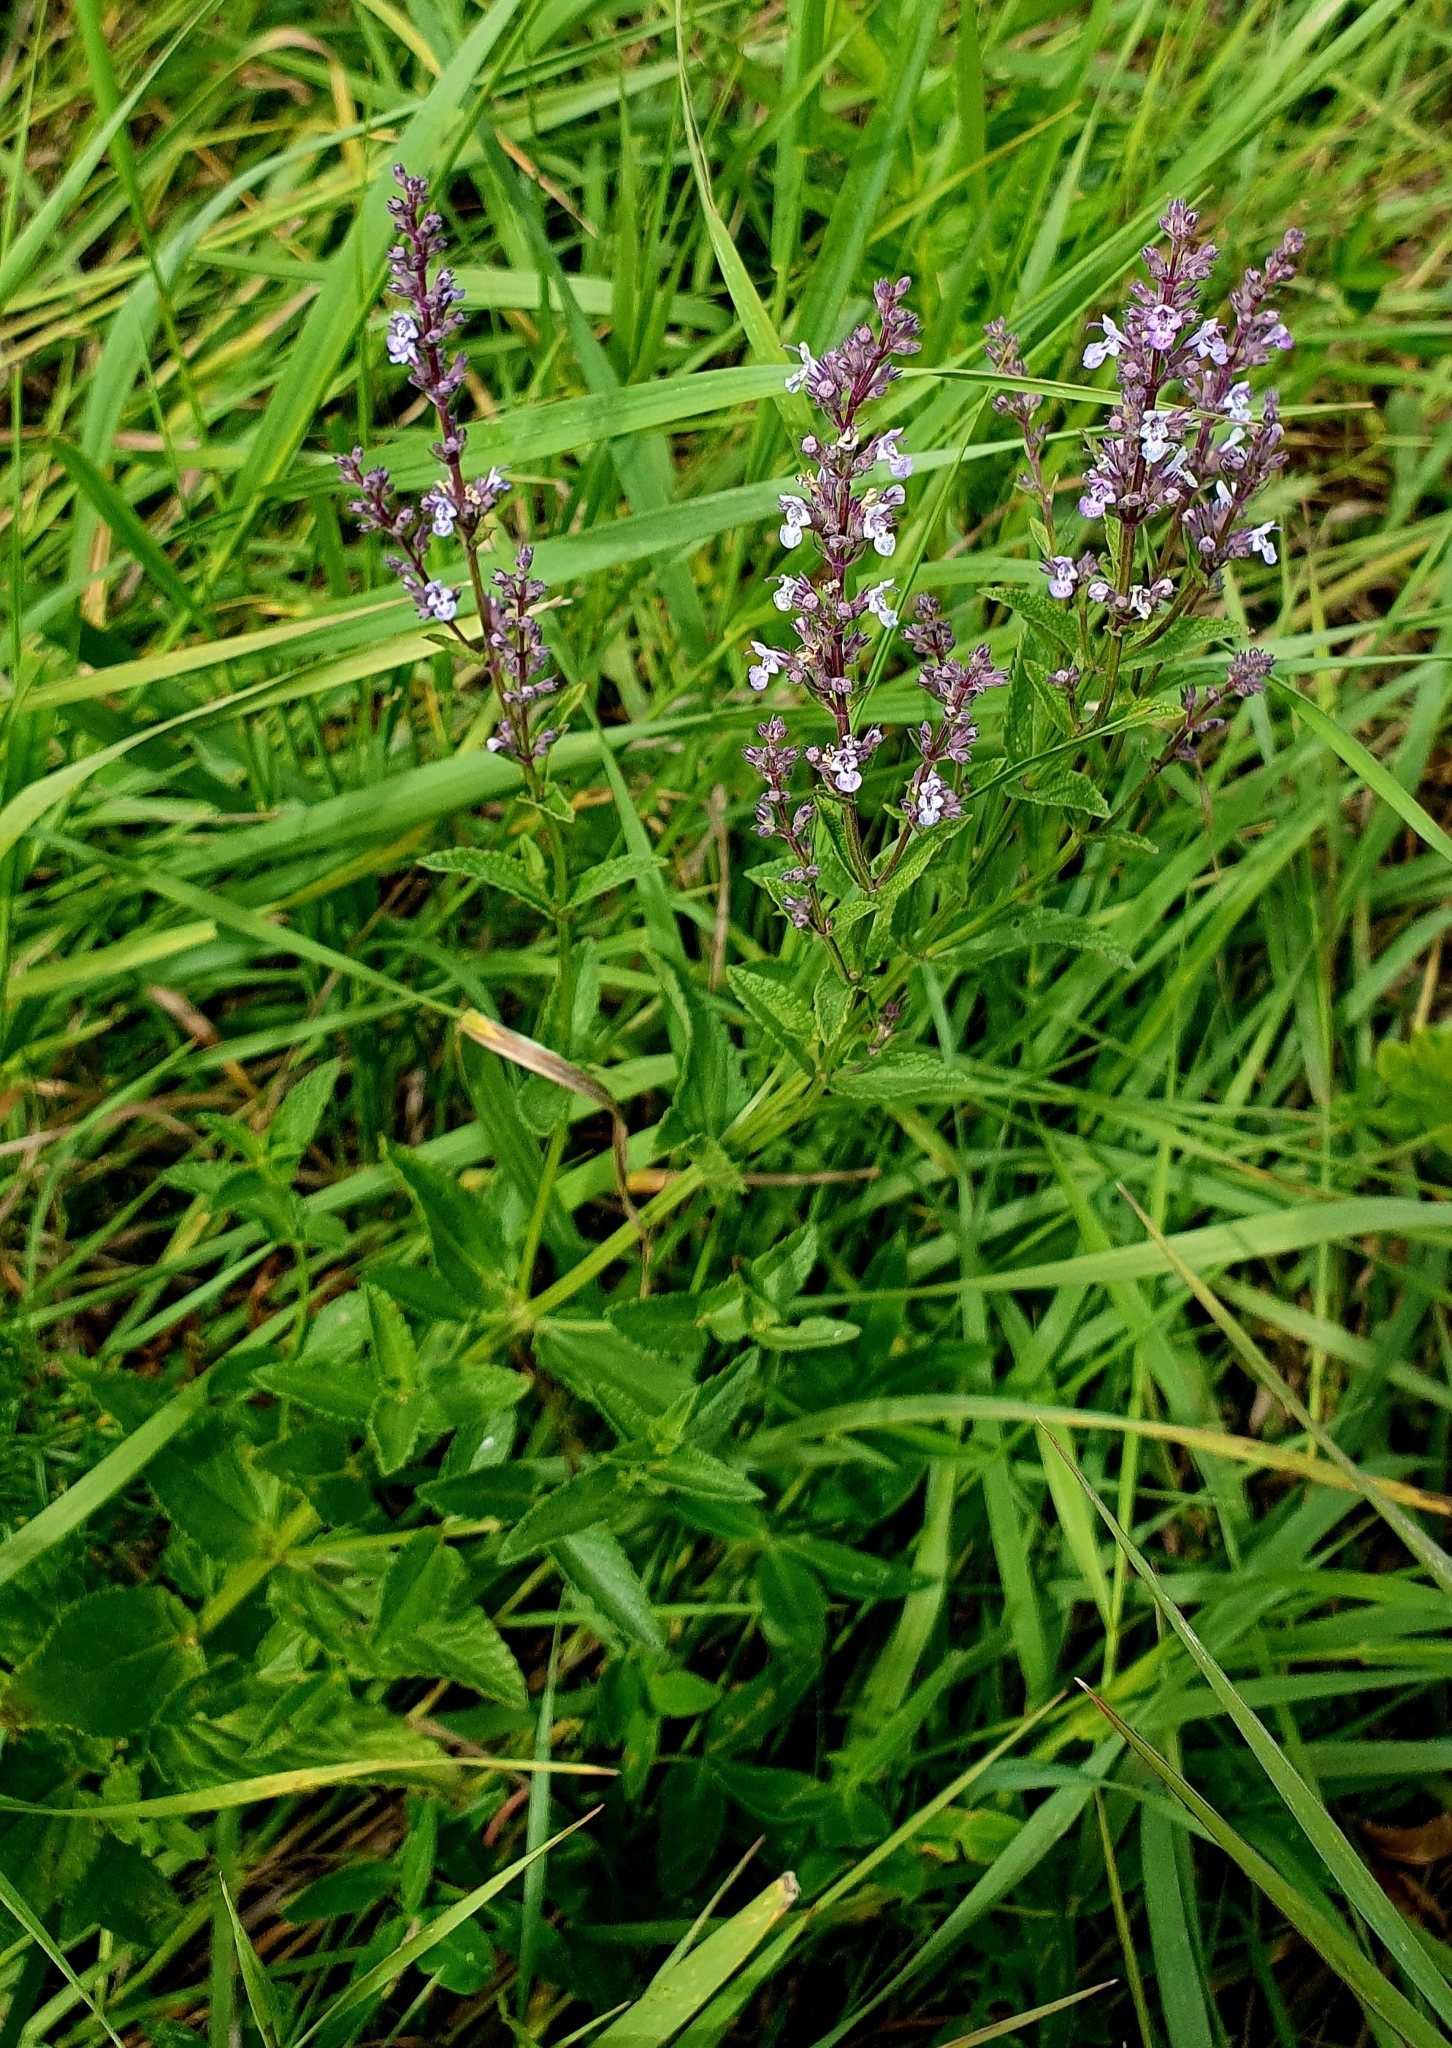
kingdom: Plantae
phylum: Tracheophyta
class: Magnoliopsida
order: Lamiales
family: Lamiaceae
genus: Nepeta
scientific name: Nepeta nuda
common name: Hairless catmint
